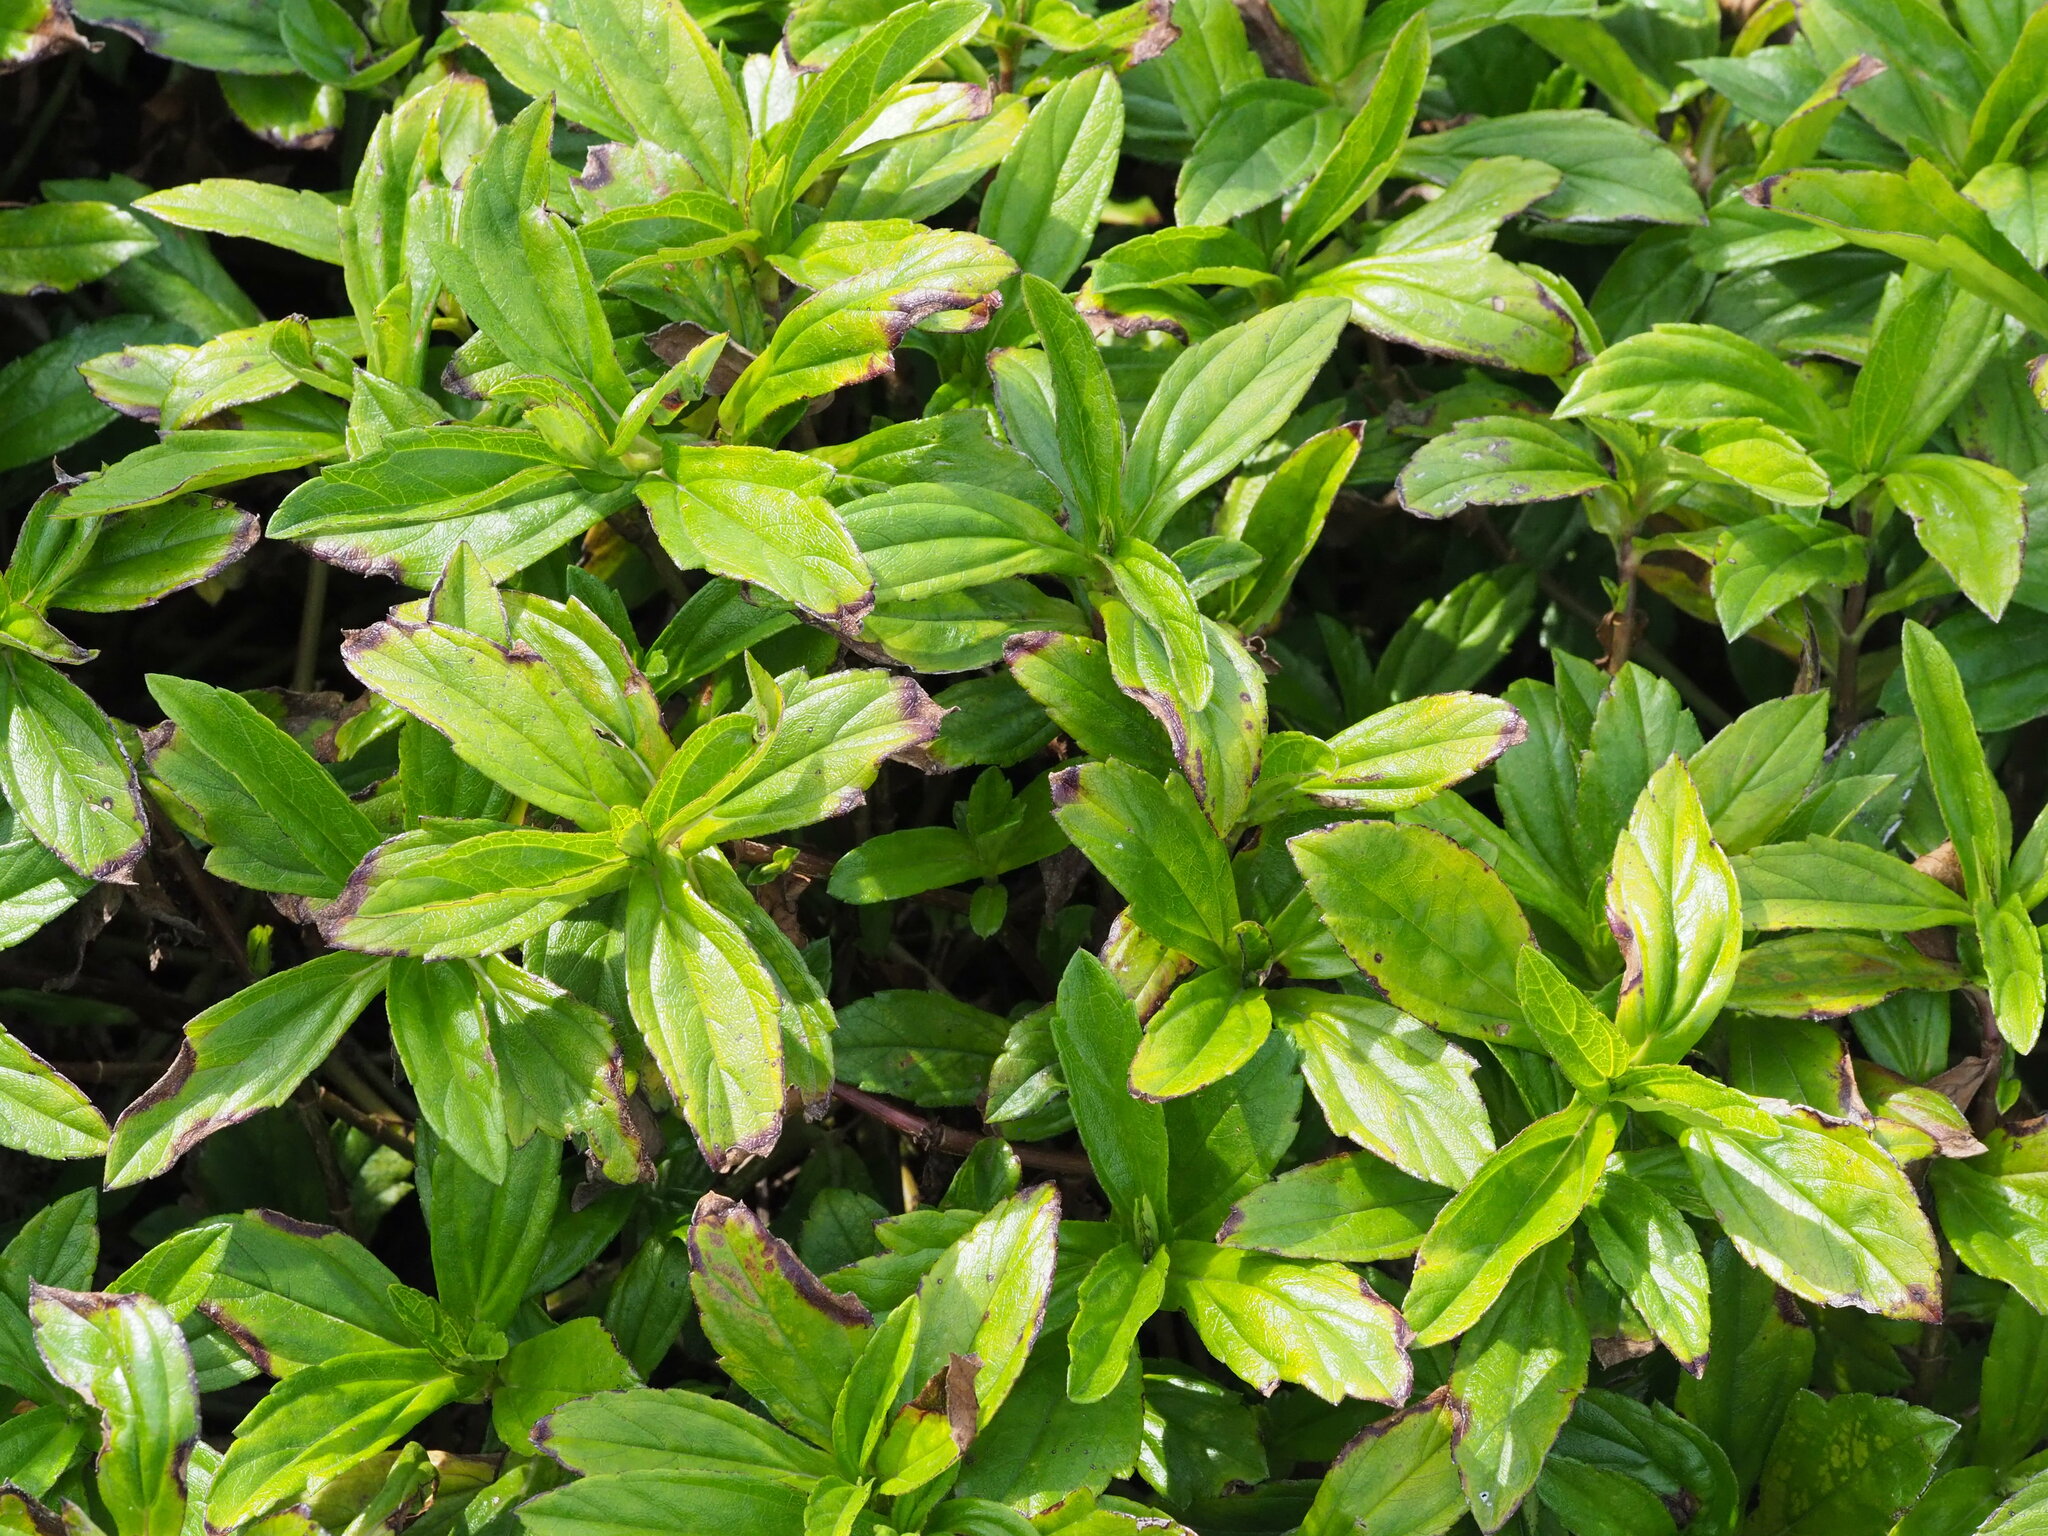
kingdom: Plantae
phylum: Tracheophyta
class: Magnoliopsida
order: Asterales
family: Asteraceae
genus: Sphagneticola
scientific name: Sphagneticola trilobata
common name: Bay biscayne creeping-oxeye
